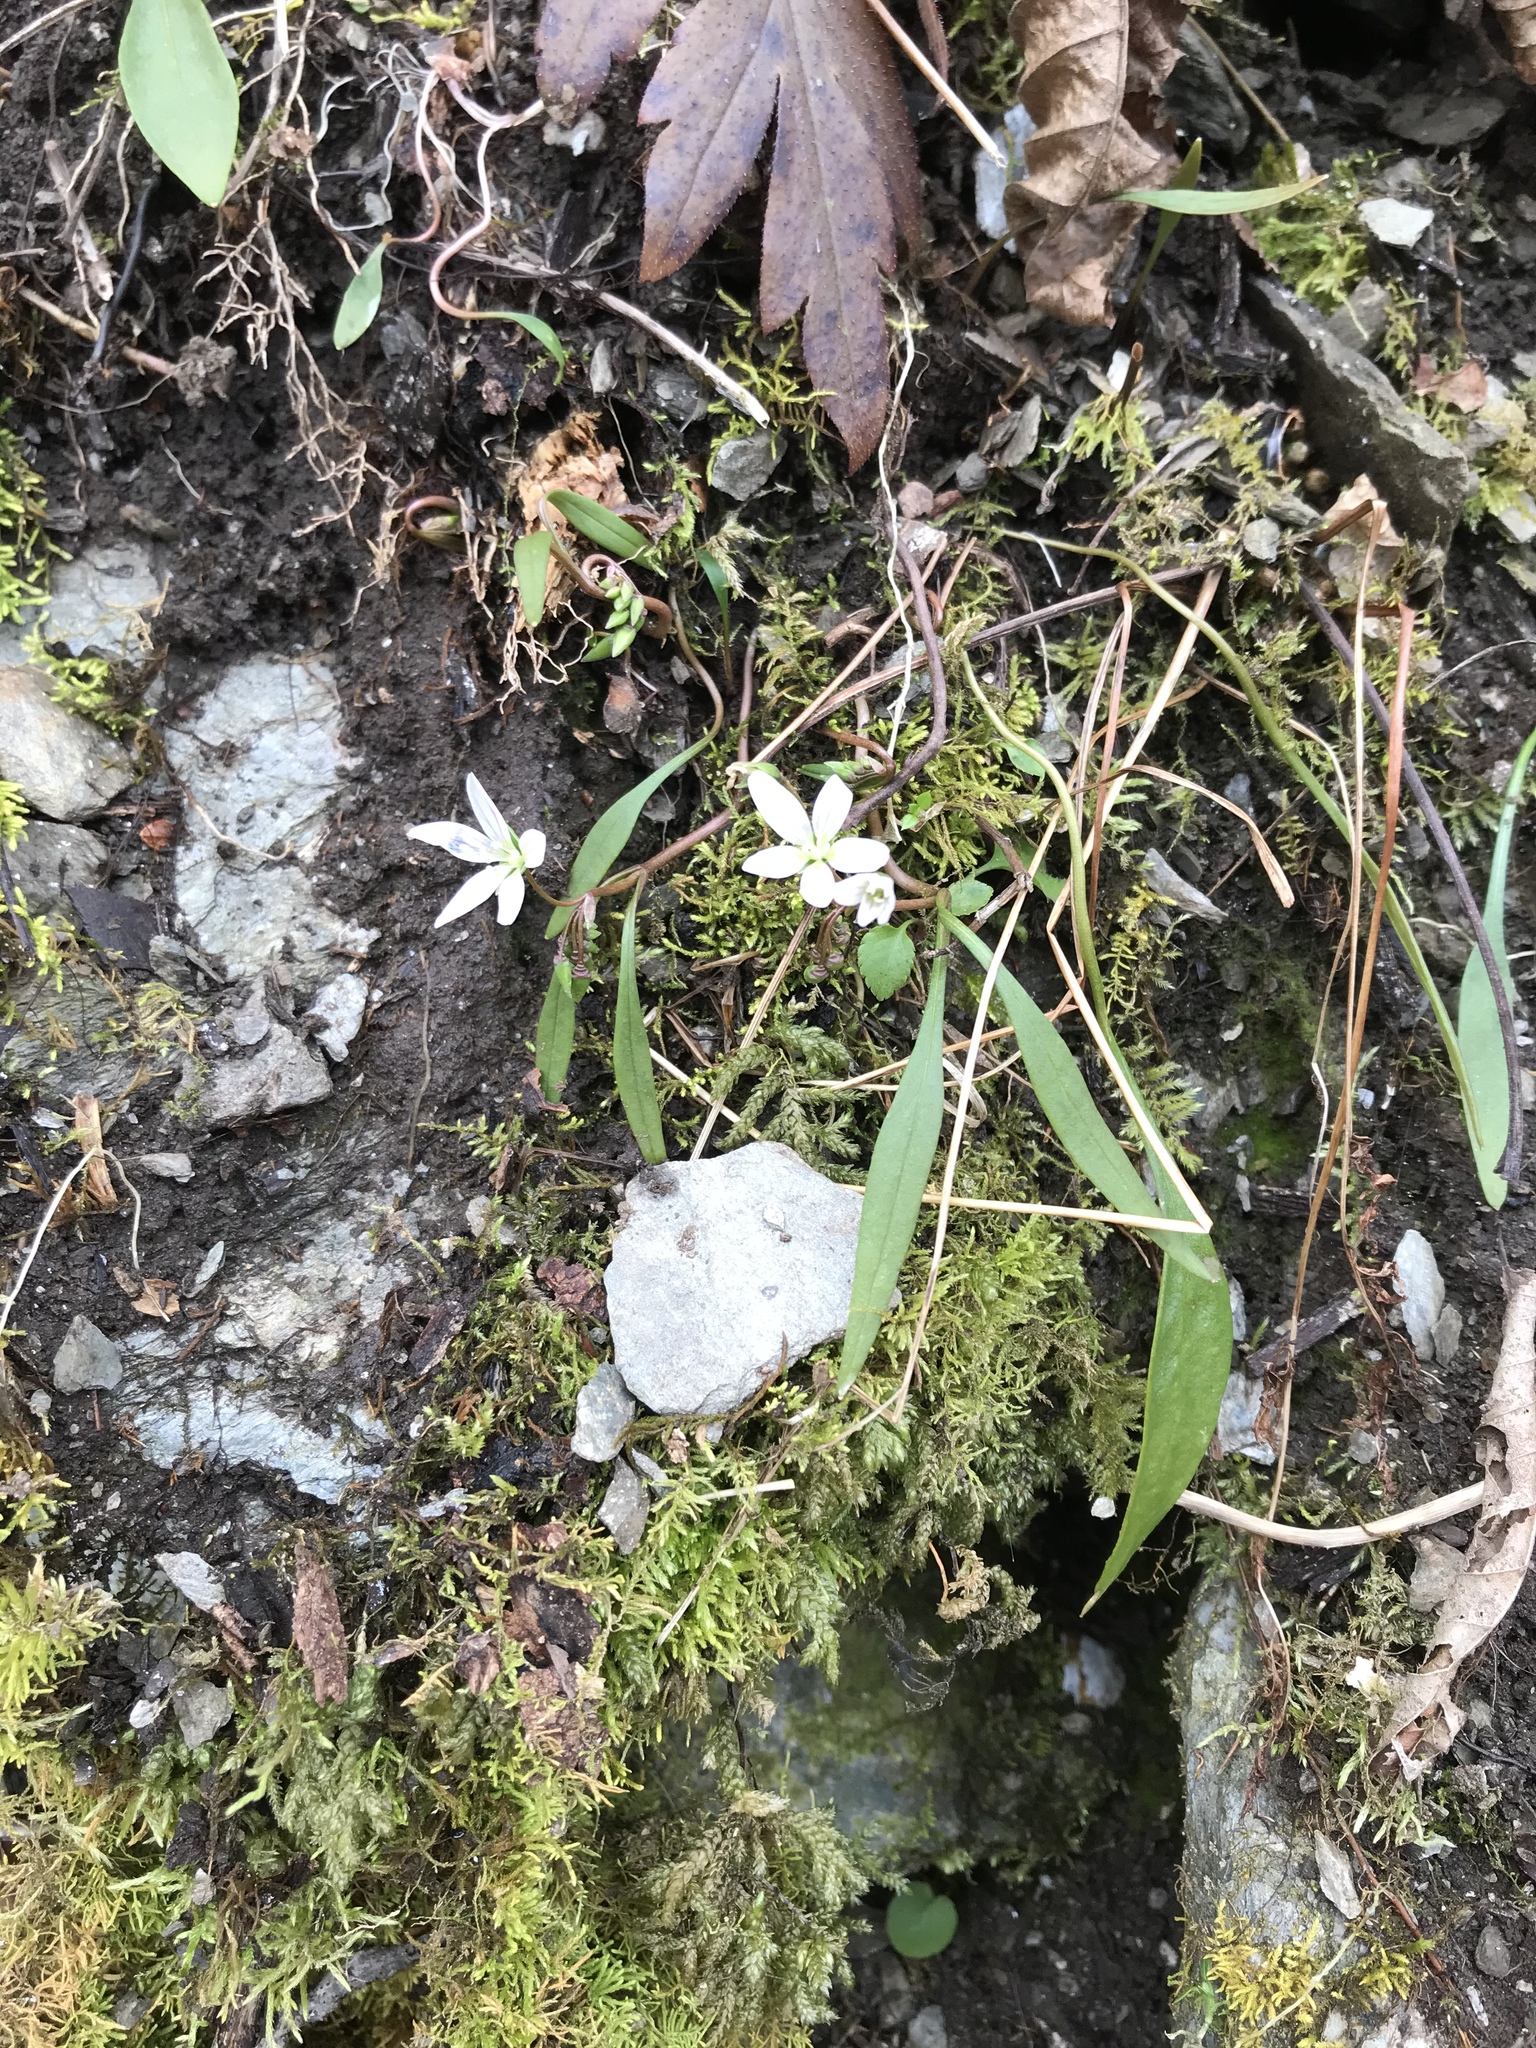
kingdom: Plantae
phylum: Tracheophyta
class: Magnoliopsida
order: Caryophyllales
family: Montiaceae
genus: Claytonia
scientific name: Claytonia virginica
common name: Virginia springbeauty
